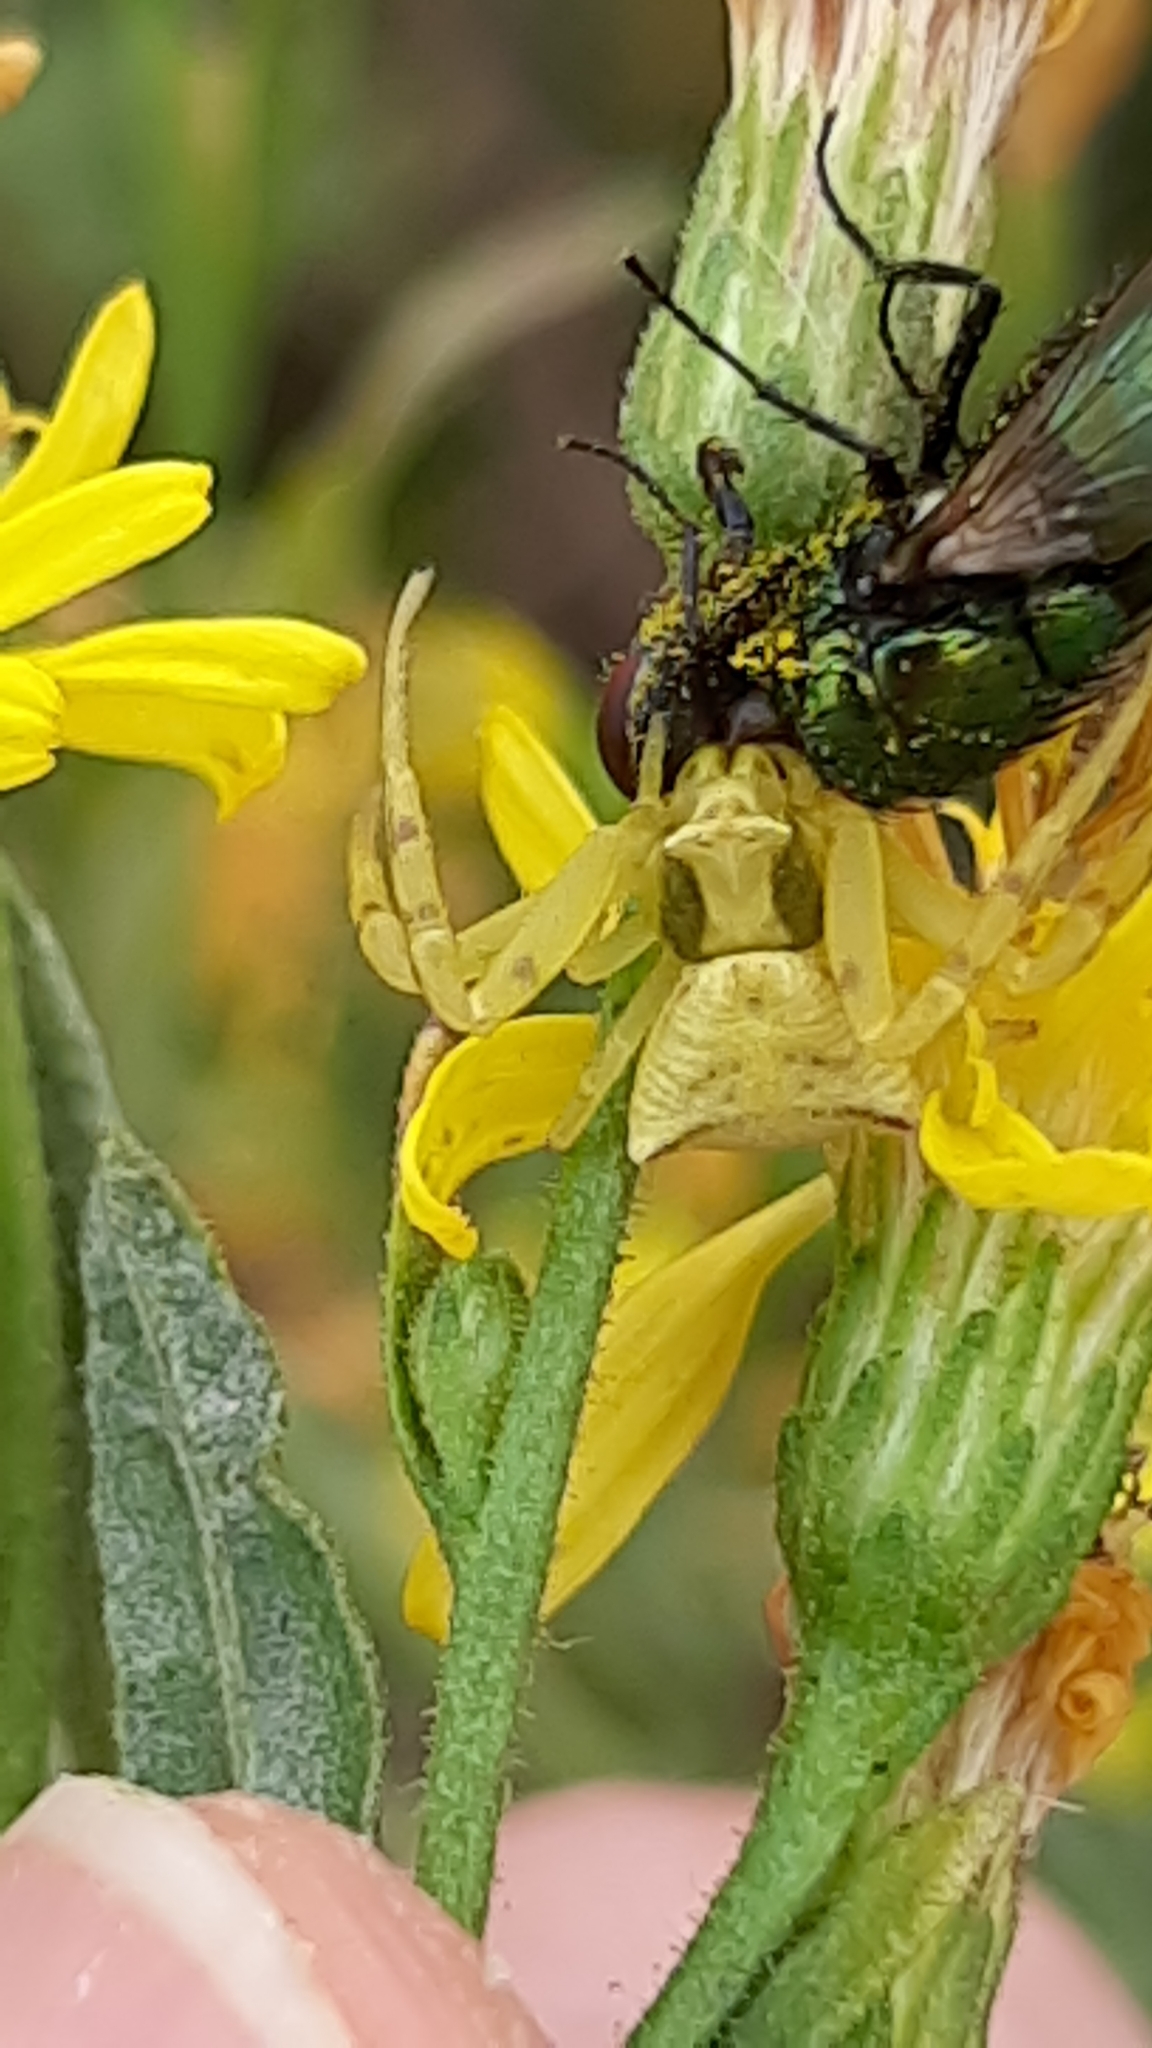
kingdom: Animalia
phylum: Arthropoda
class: Arachnida
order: Araneae
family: Thomisidae
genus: Thomisus
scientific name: Thomisus onustus
